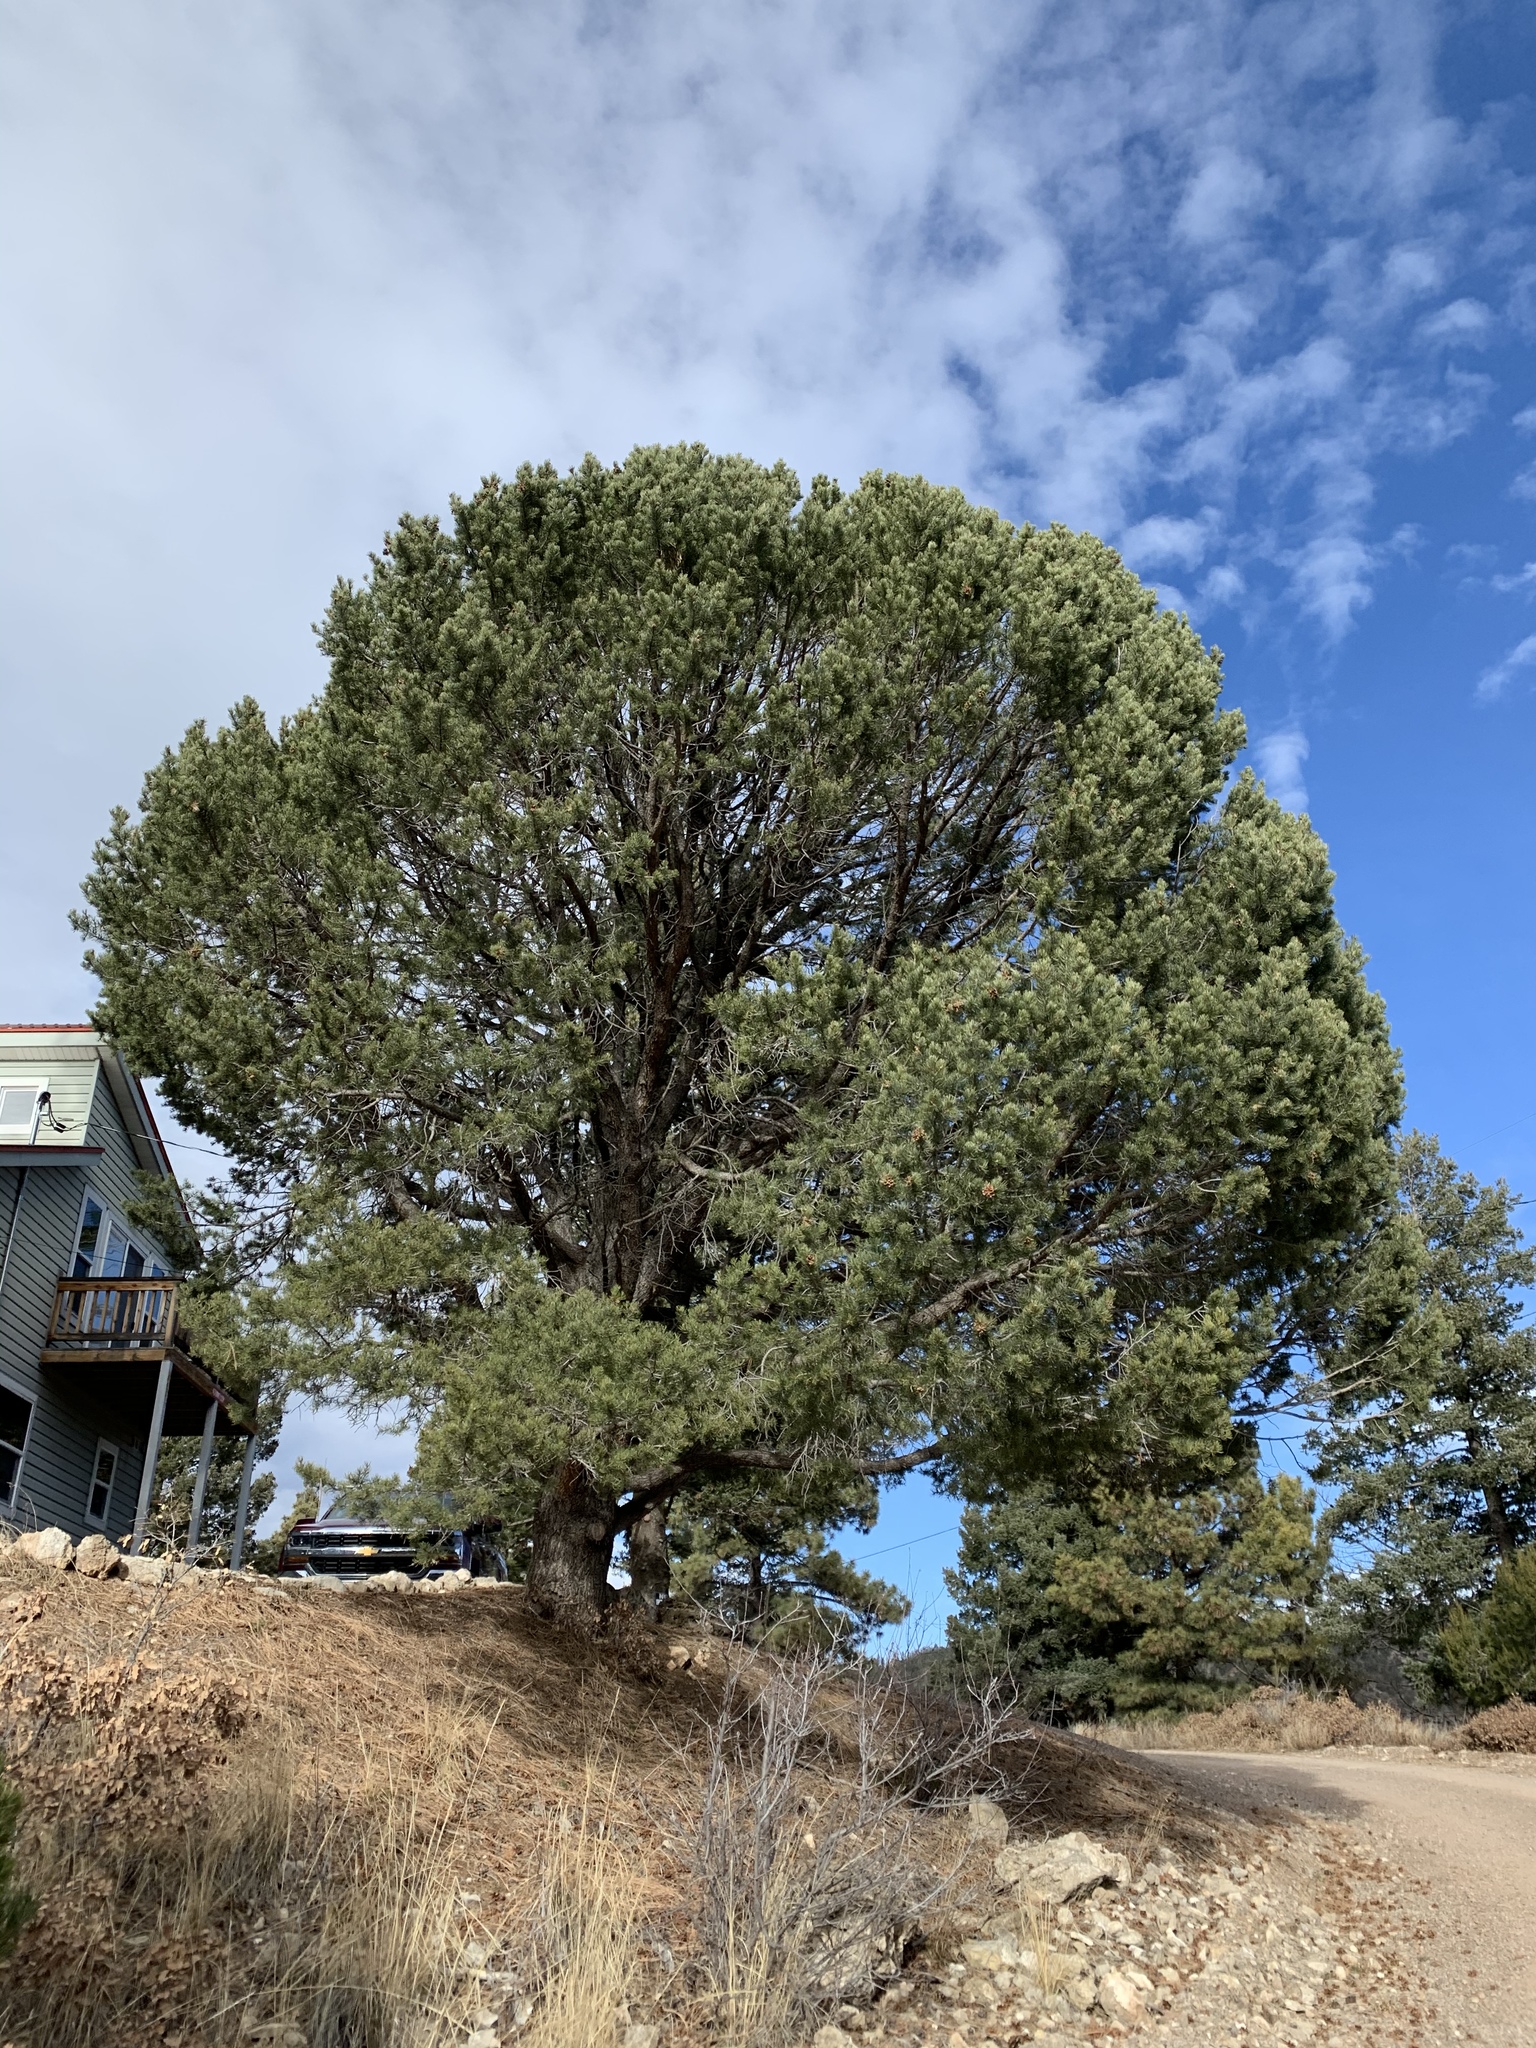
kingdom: Plantae
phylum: Tracheophyta
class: Pinopsida
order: Pinales
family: Pinaceae
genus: Pinus
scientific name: Pinus edulis
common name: Colorado pinyon
